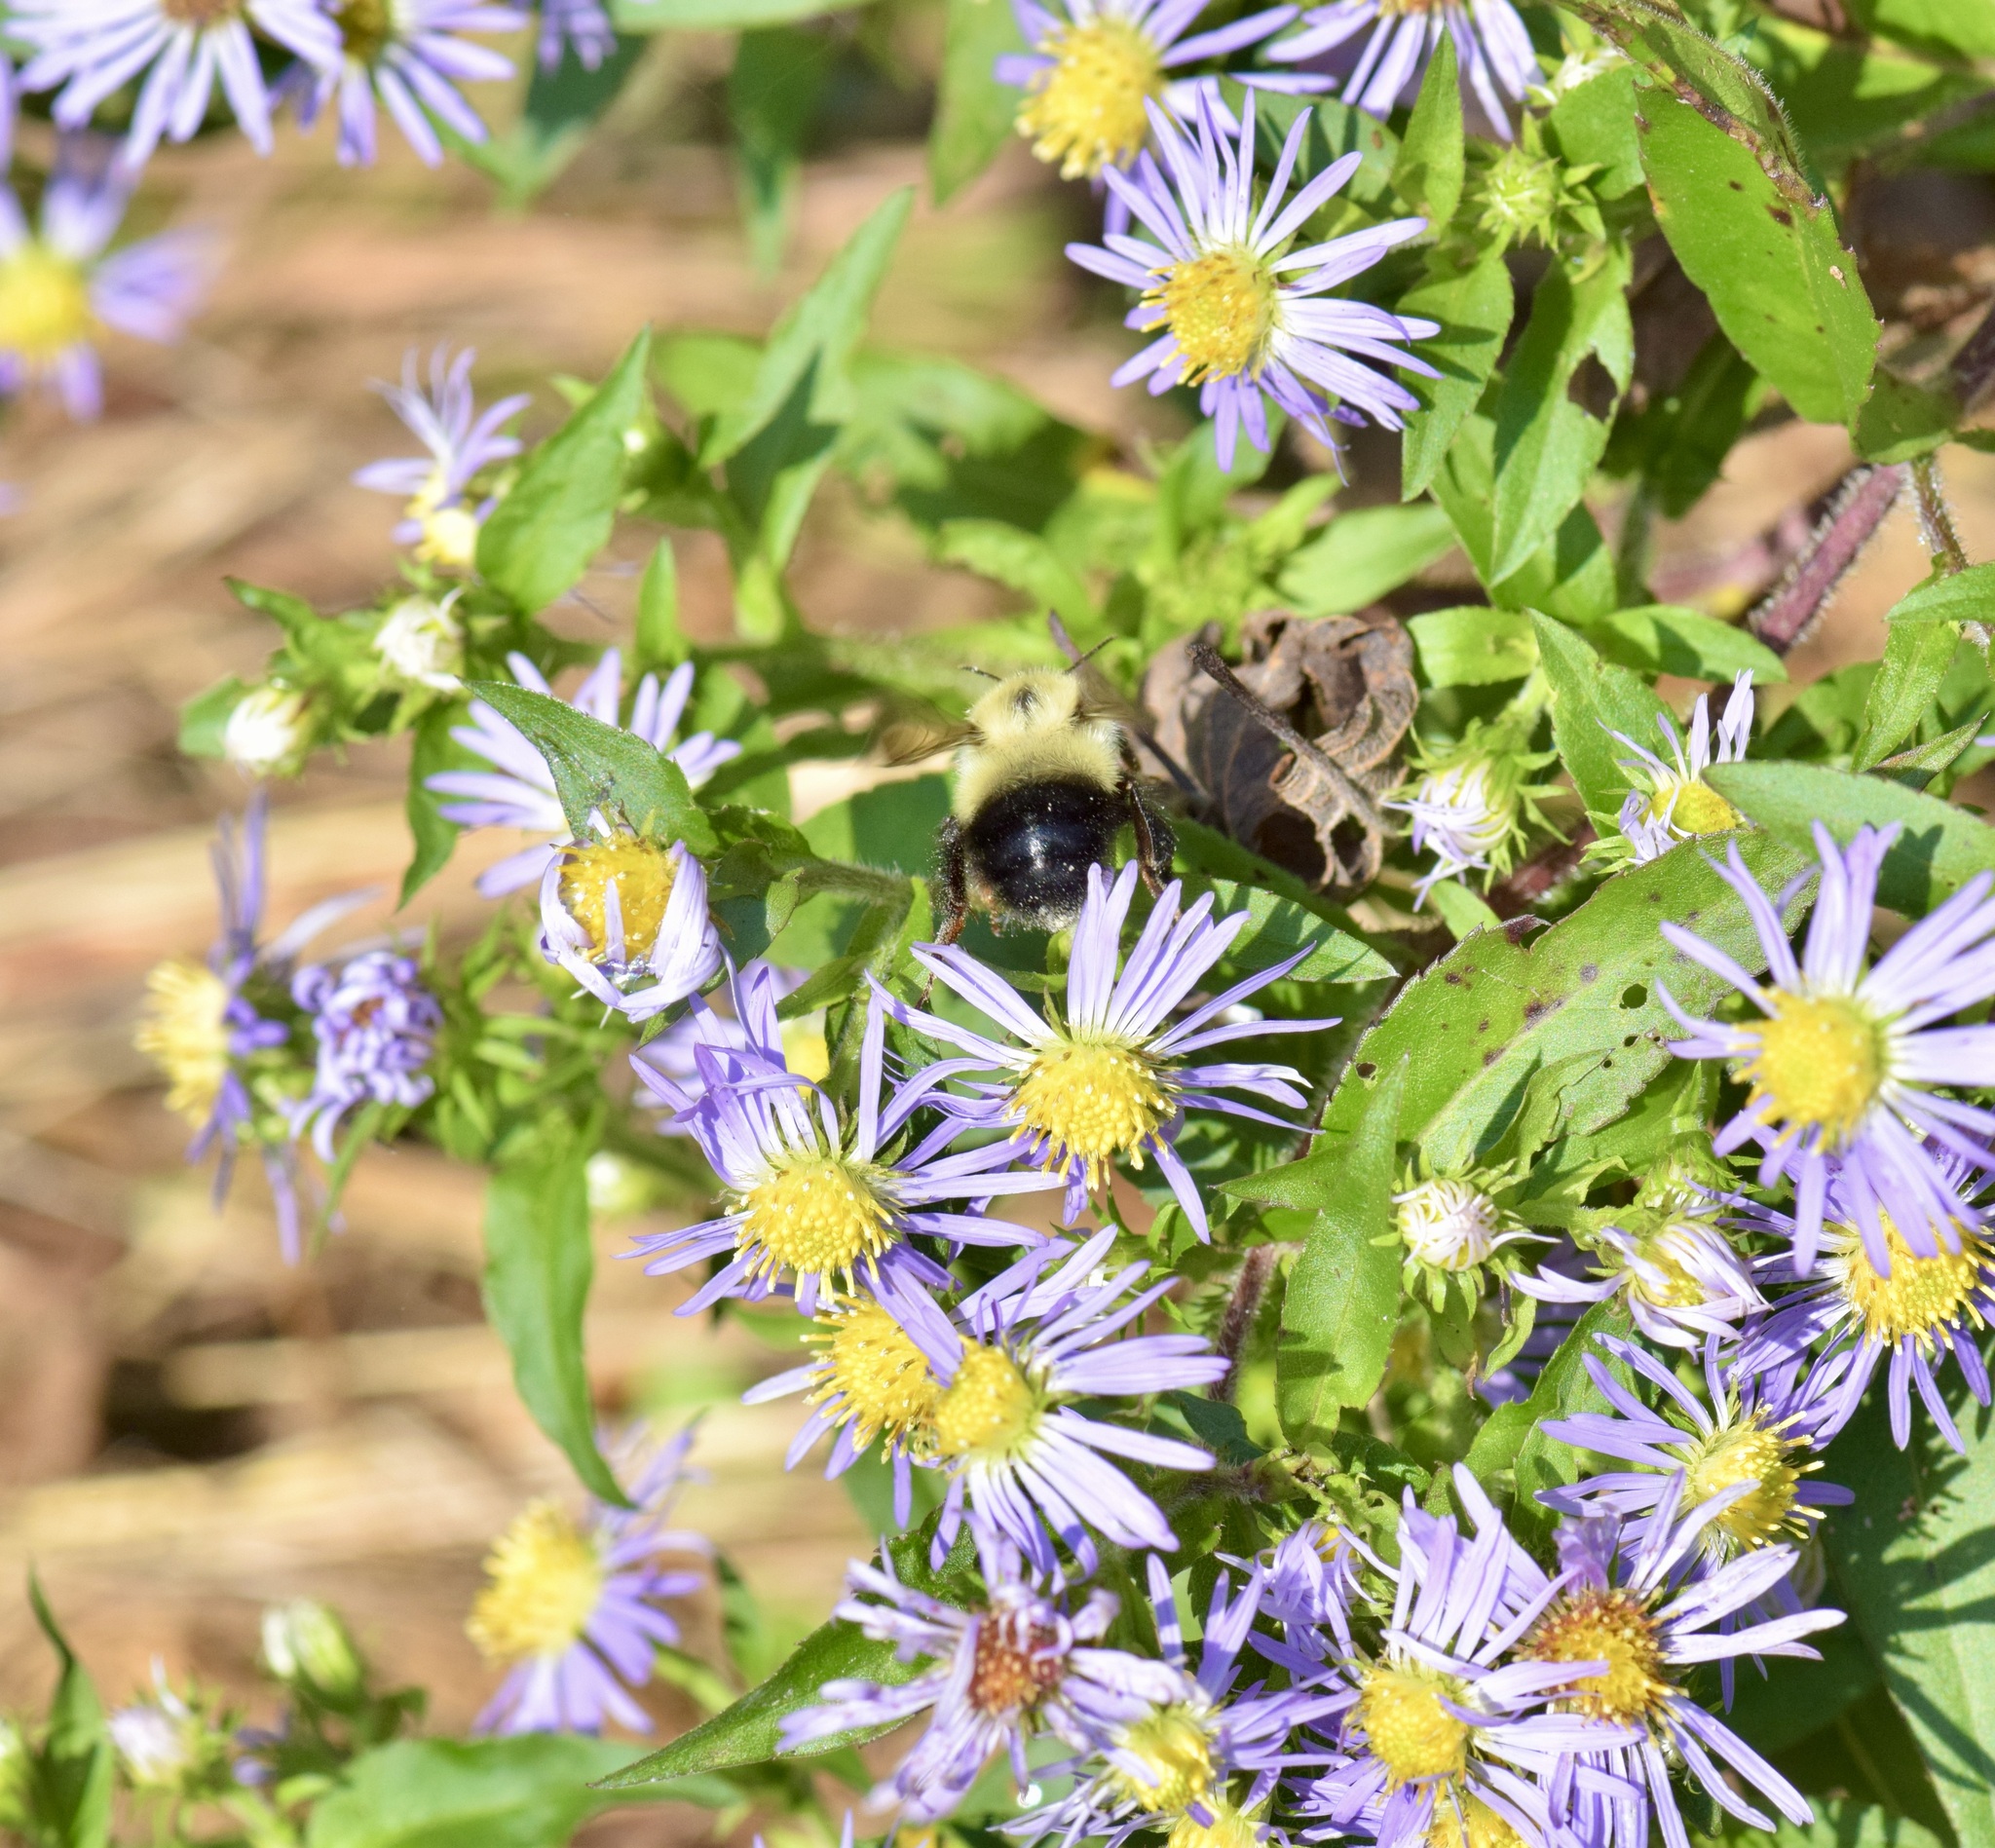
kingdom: Animalia
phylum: Arthropoda
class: Insecta
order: Hymenoptera
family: Apidae
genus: Pyrobombus
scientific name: Pyrobombus
